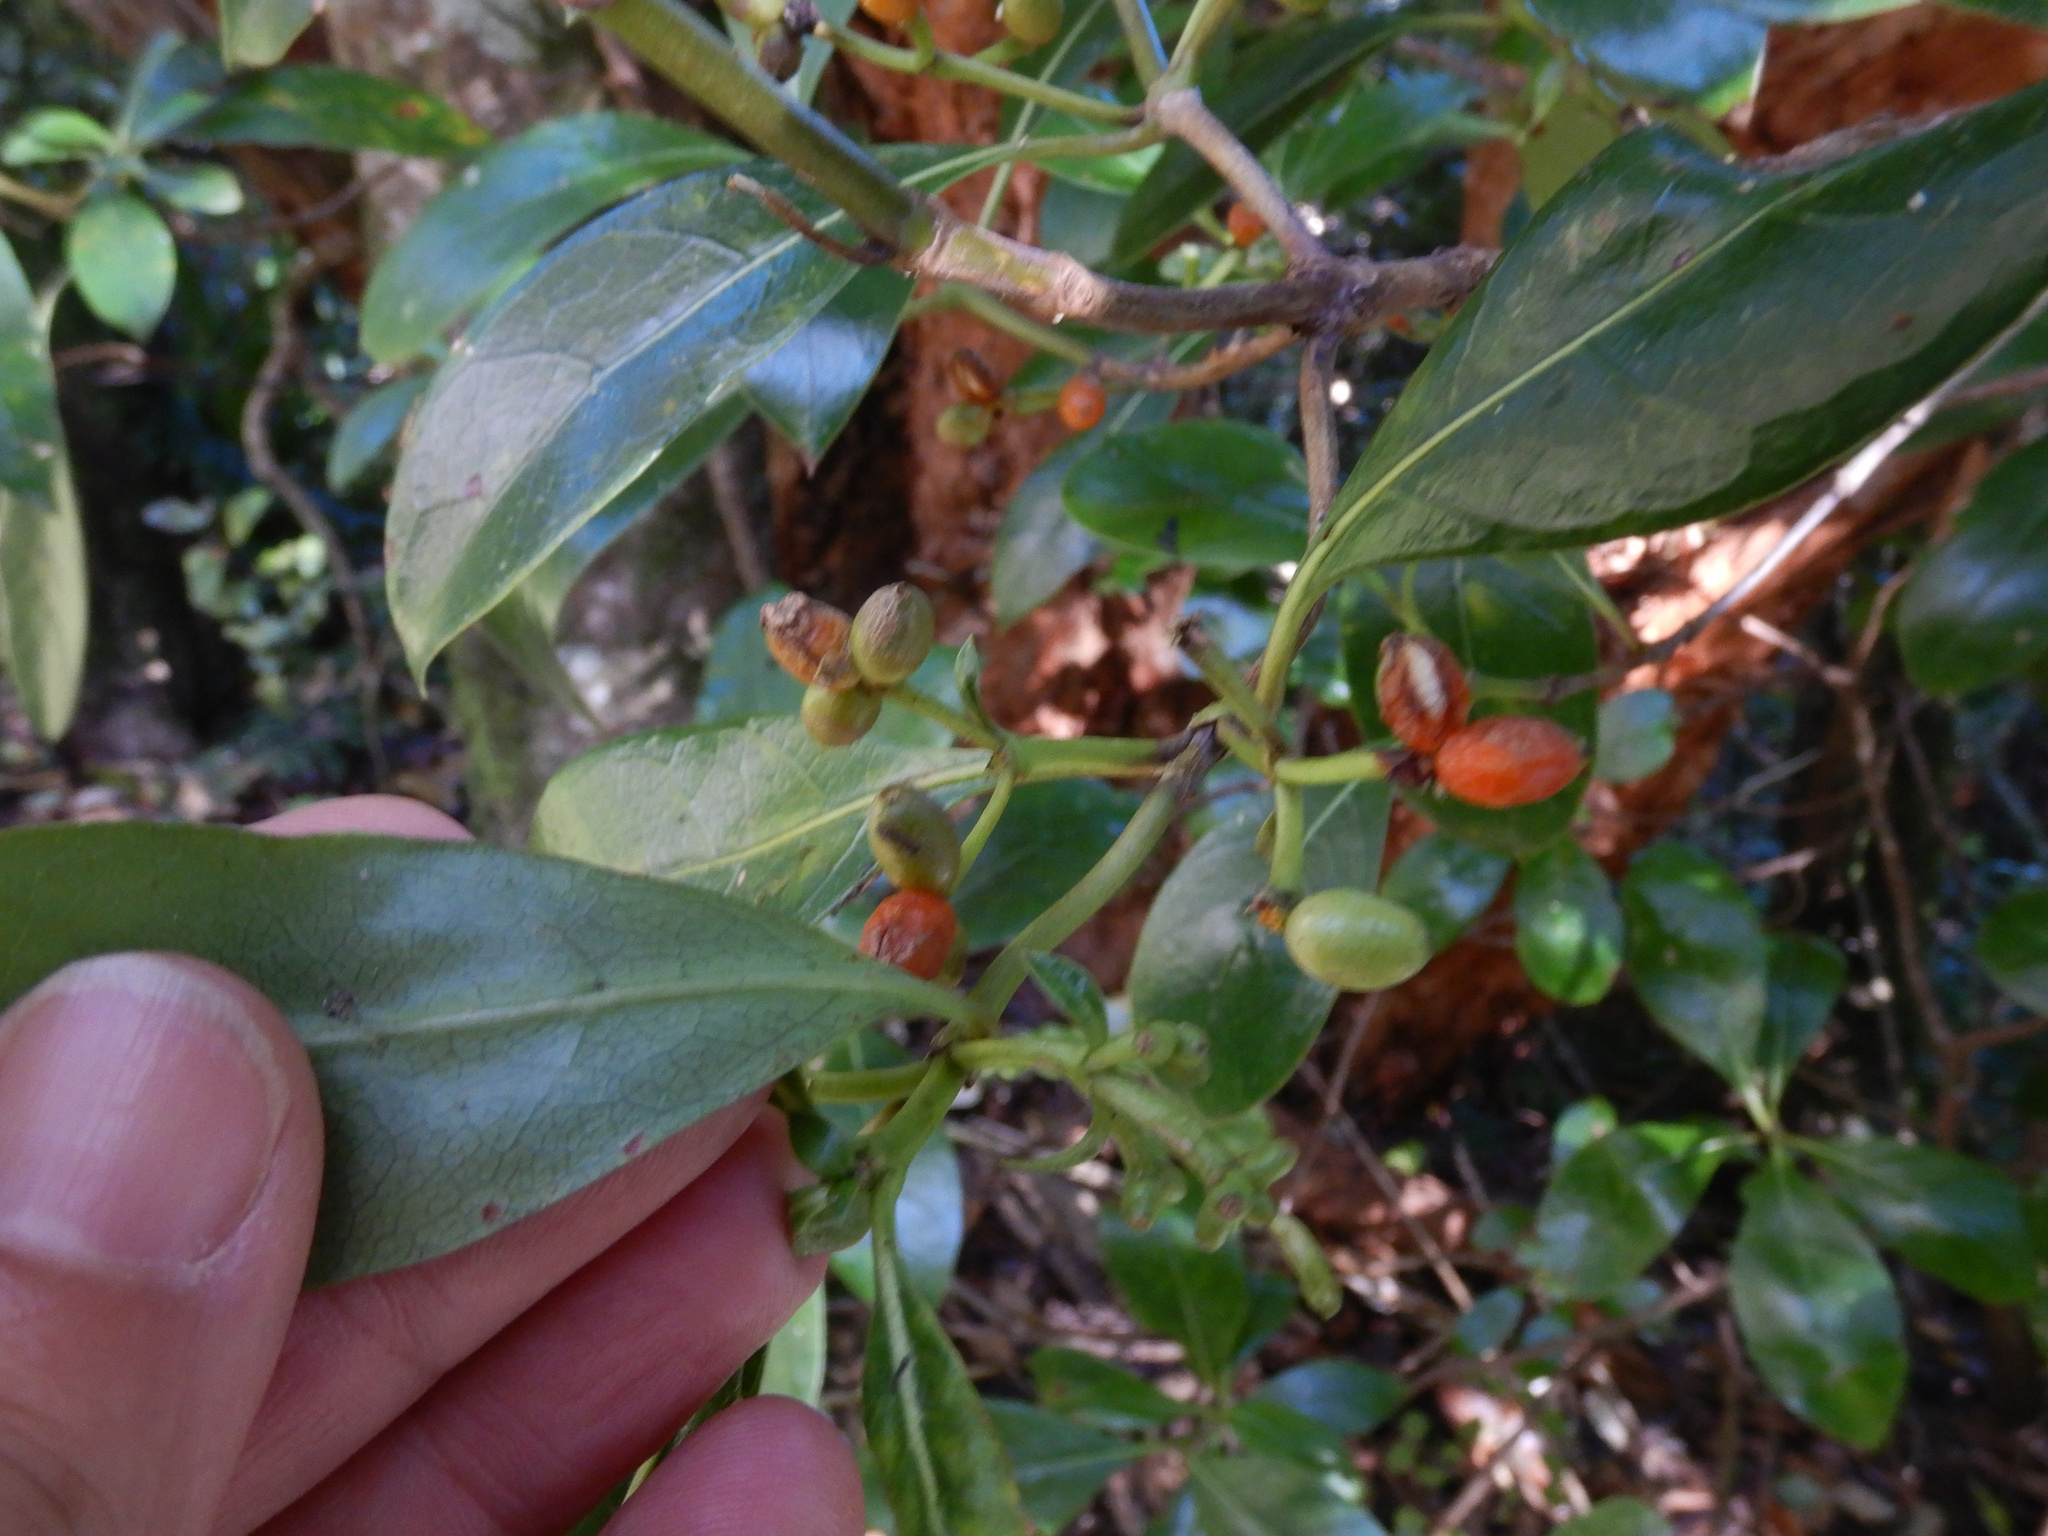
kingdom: Plantae
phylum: Tracheophyta
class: Magnoliopsida
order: Gentianales
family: Rubiaceae
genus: Coprosma
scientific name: Coprosma robusta
